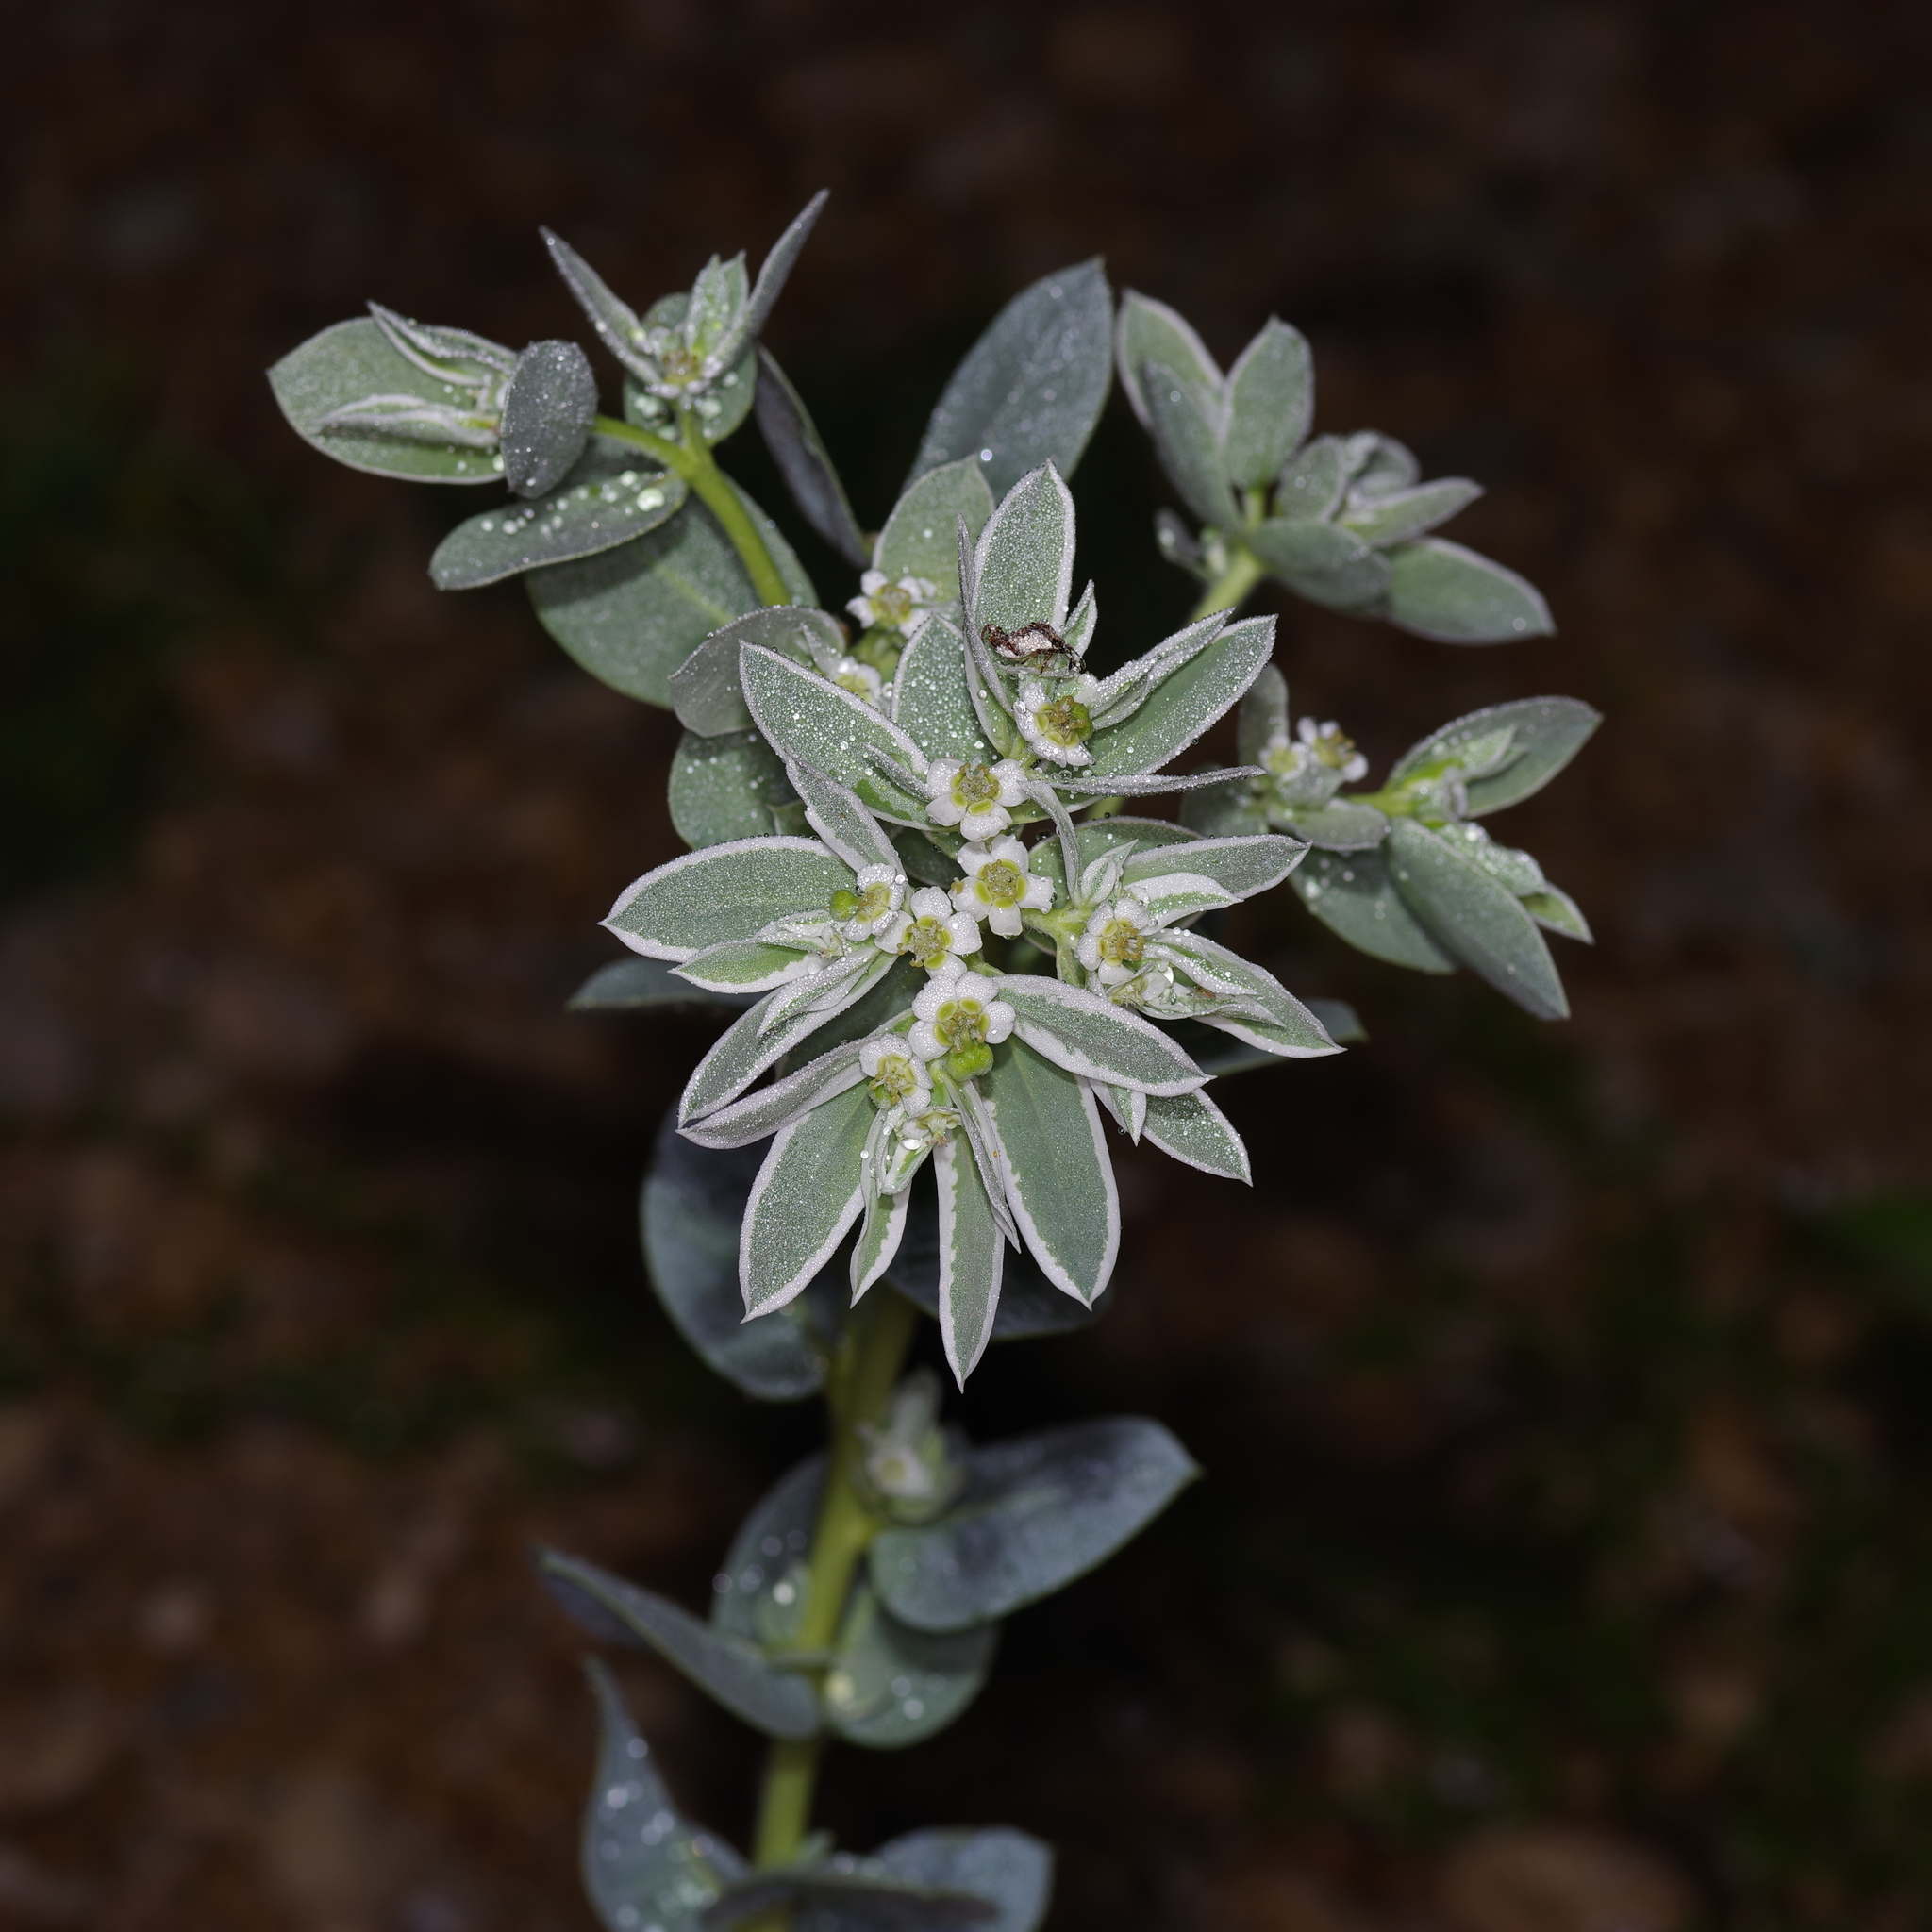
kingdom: Plantae
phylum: Tracheophyta
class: Magnoliopsida
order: Malpighiales
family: Euphorbiaceae
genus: Euphorbia
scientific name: Euphorbia marginata
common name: Ghostweed
